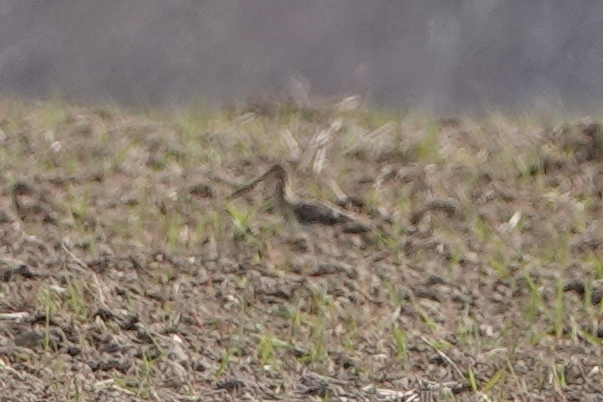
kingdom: Animalia
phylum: Chordata
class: Aves
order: Charadriiformes
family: Scolopacidae
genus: Limosa
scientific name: Limosa limosa
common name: Black-tailed godwit
